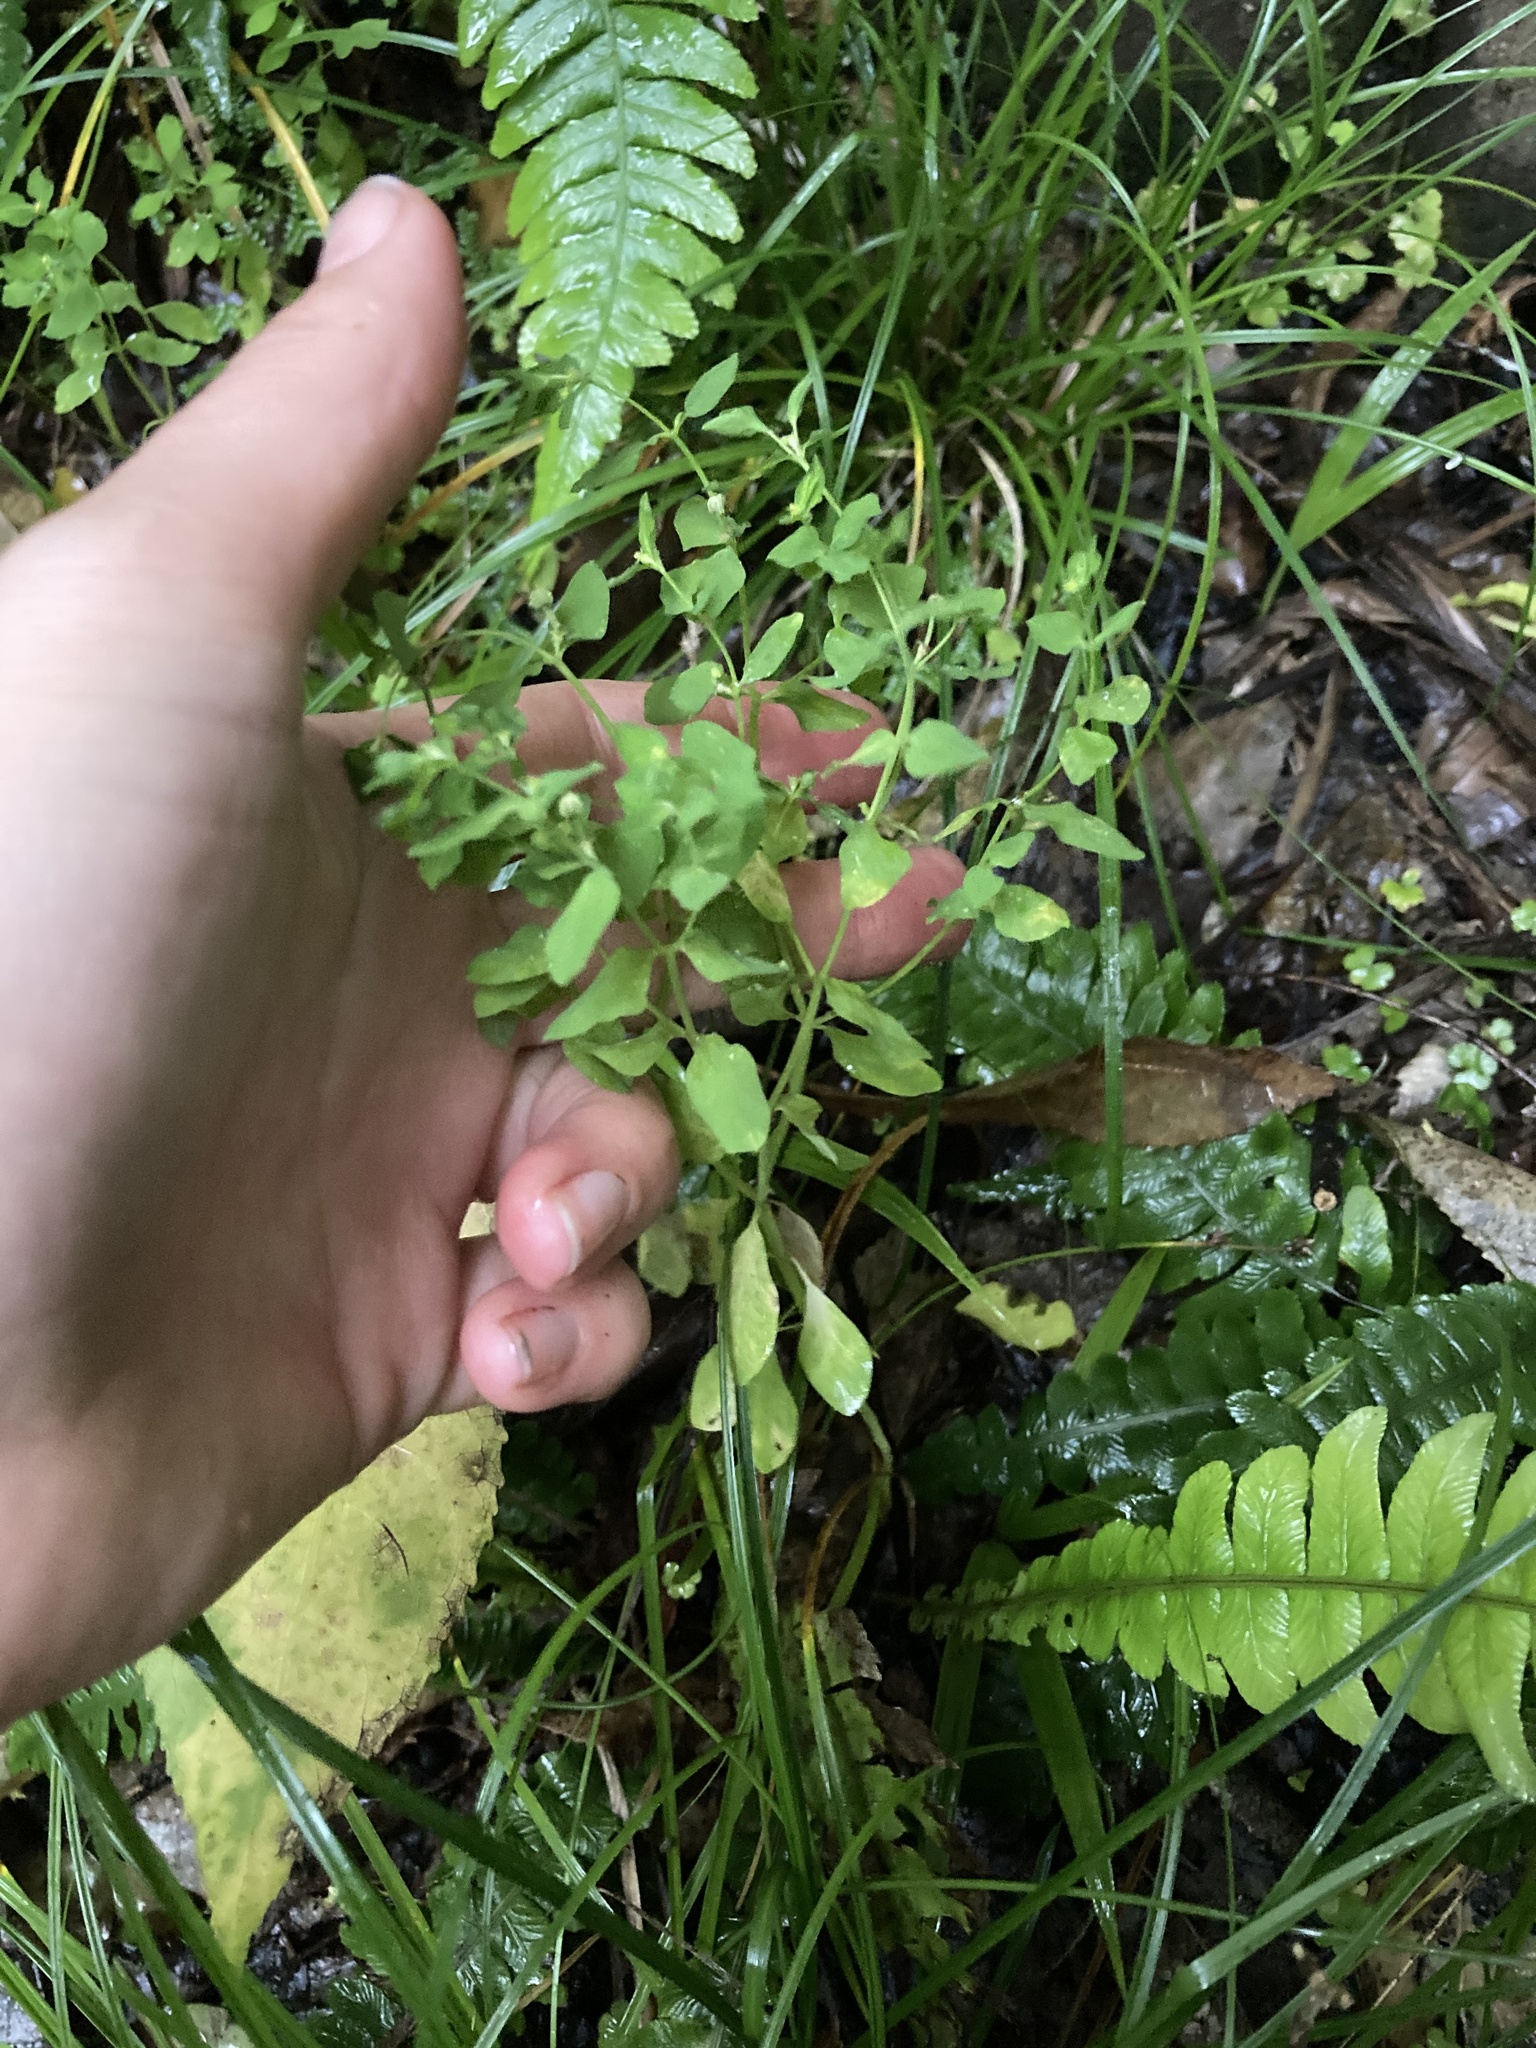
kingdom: Plantae
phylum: Tracheophyta
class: Magnoliopsida
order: Malpighiales
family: Euphorbiaceae
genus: Euphorbia
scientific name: Euphorbia peplus
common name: Petty spurge
